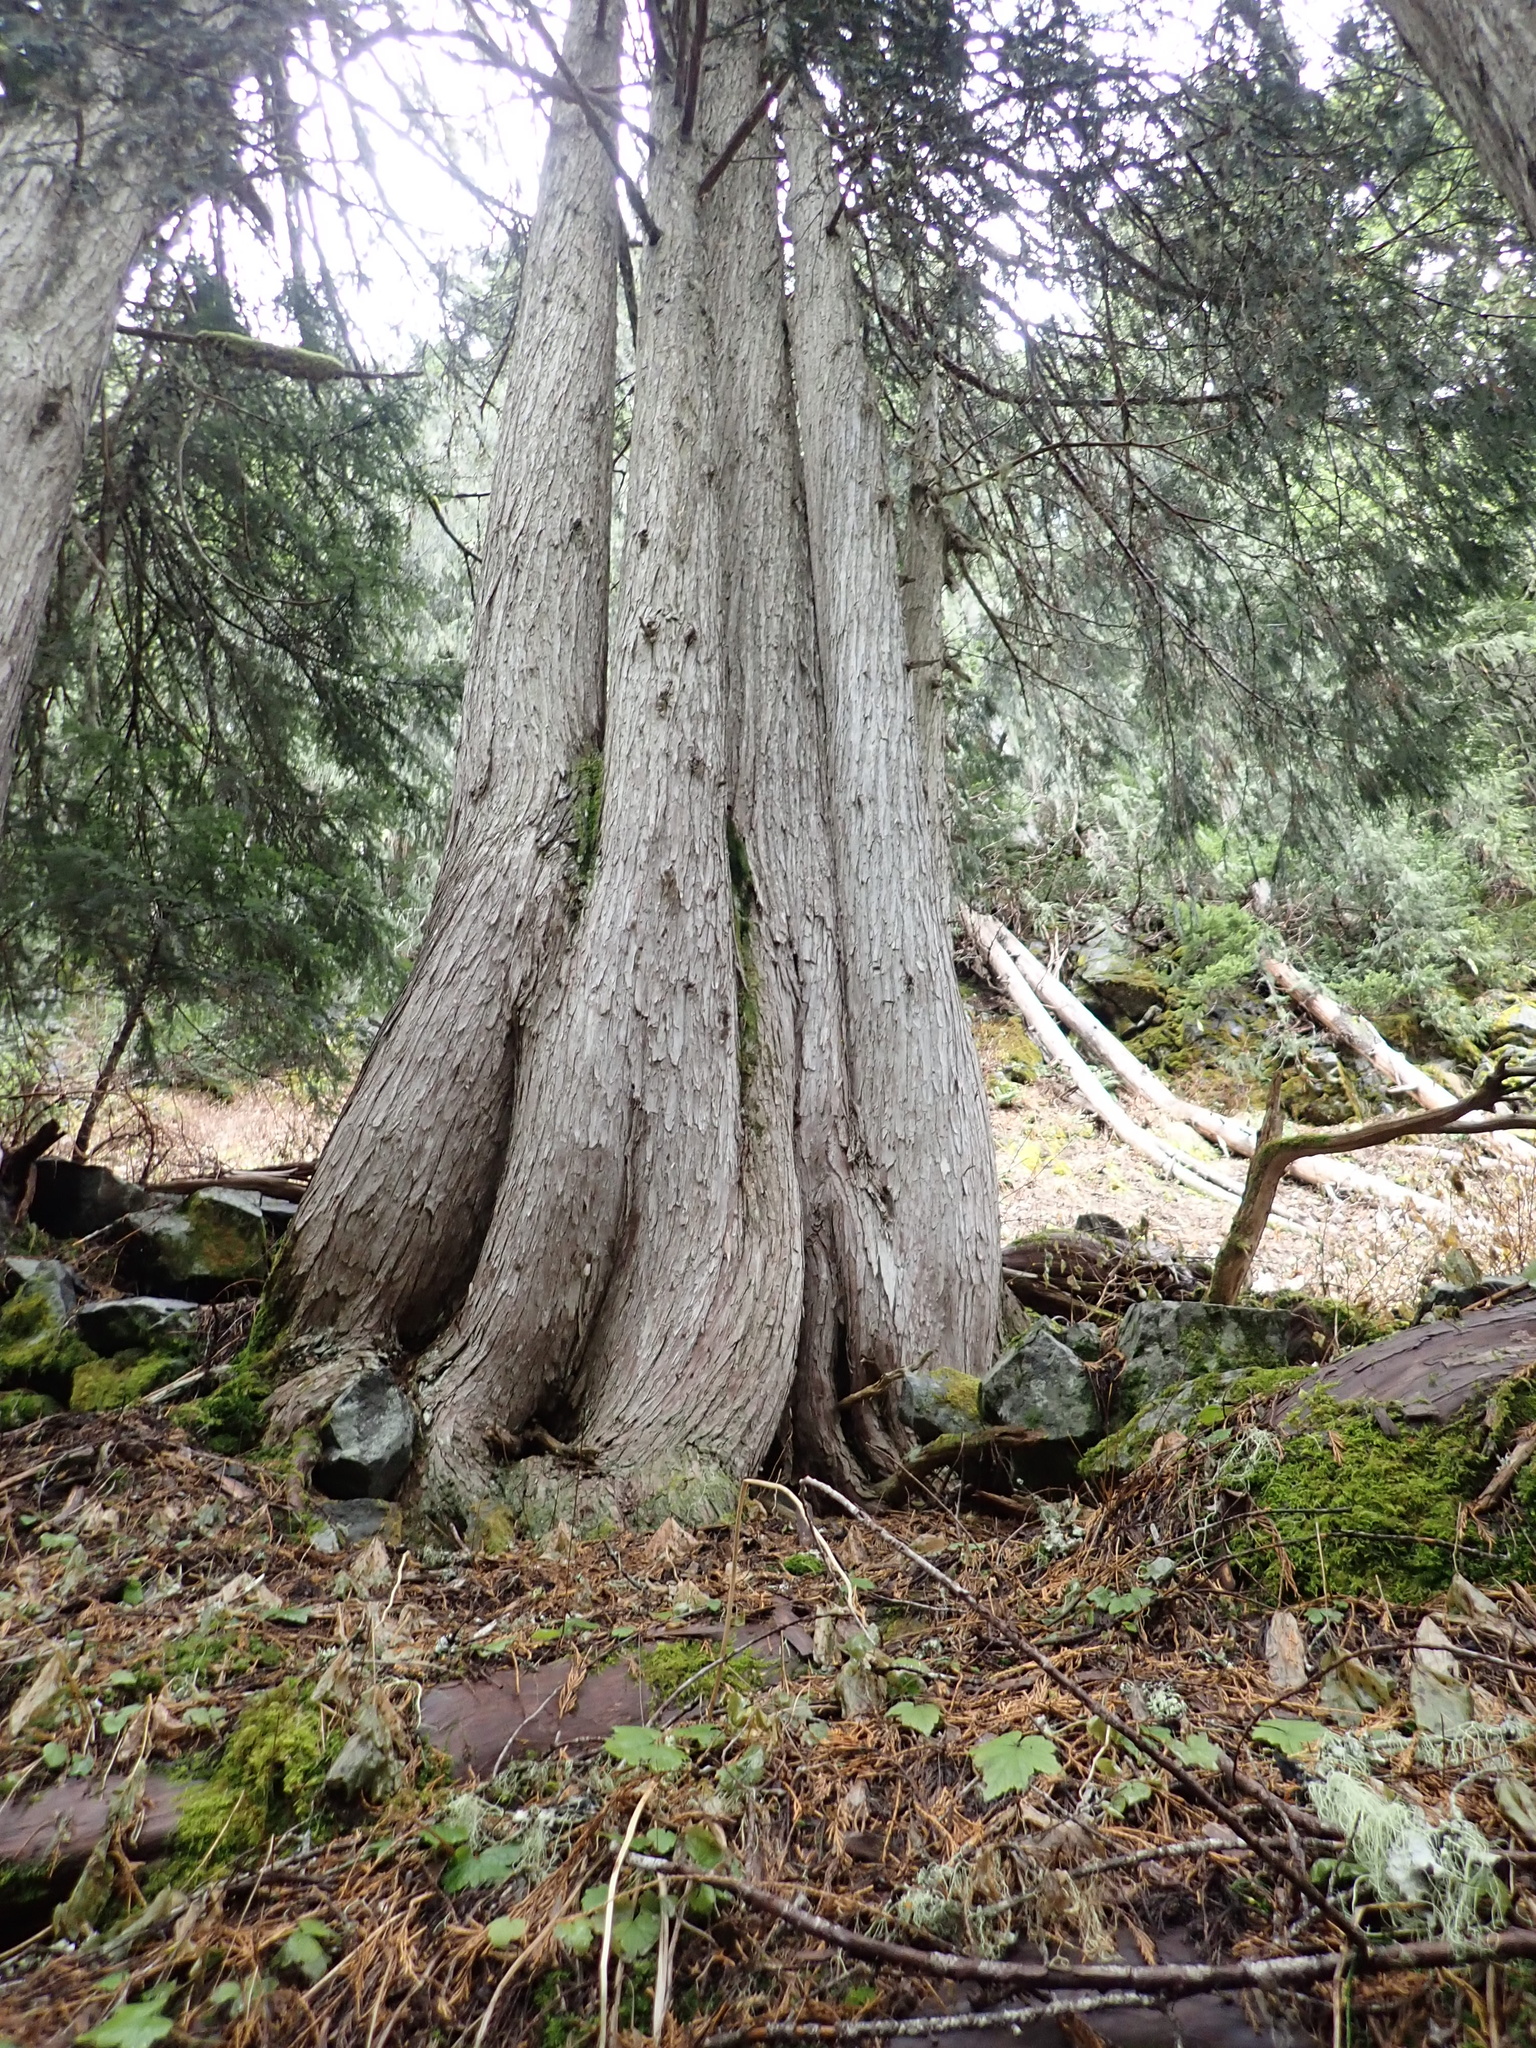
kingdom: Plantae
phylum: Tracheophyta
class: Pinopsida
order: Pinales
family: Cupressaceae
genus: Xanthocyparis
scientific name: Xanthocyparis nootkatensis
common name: Nootka cypress
